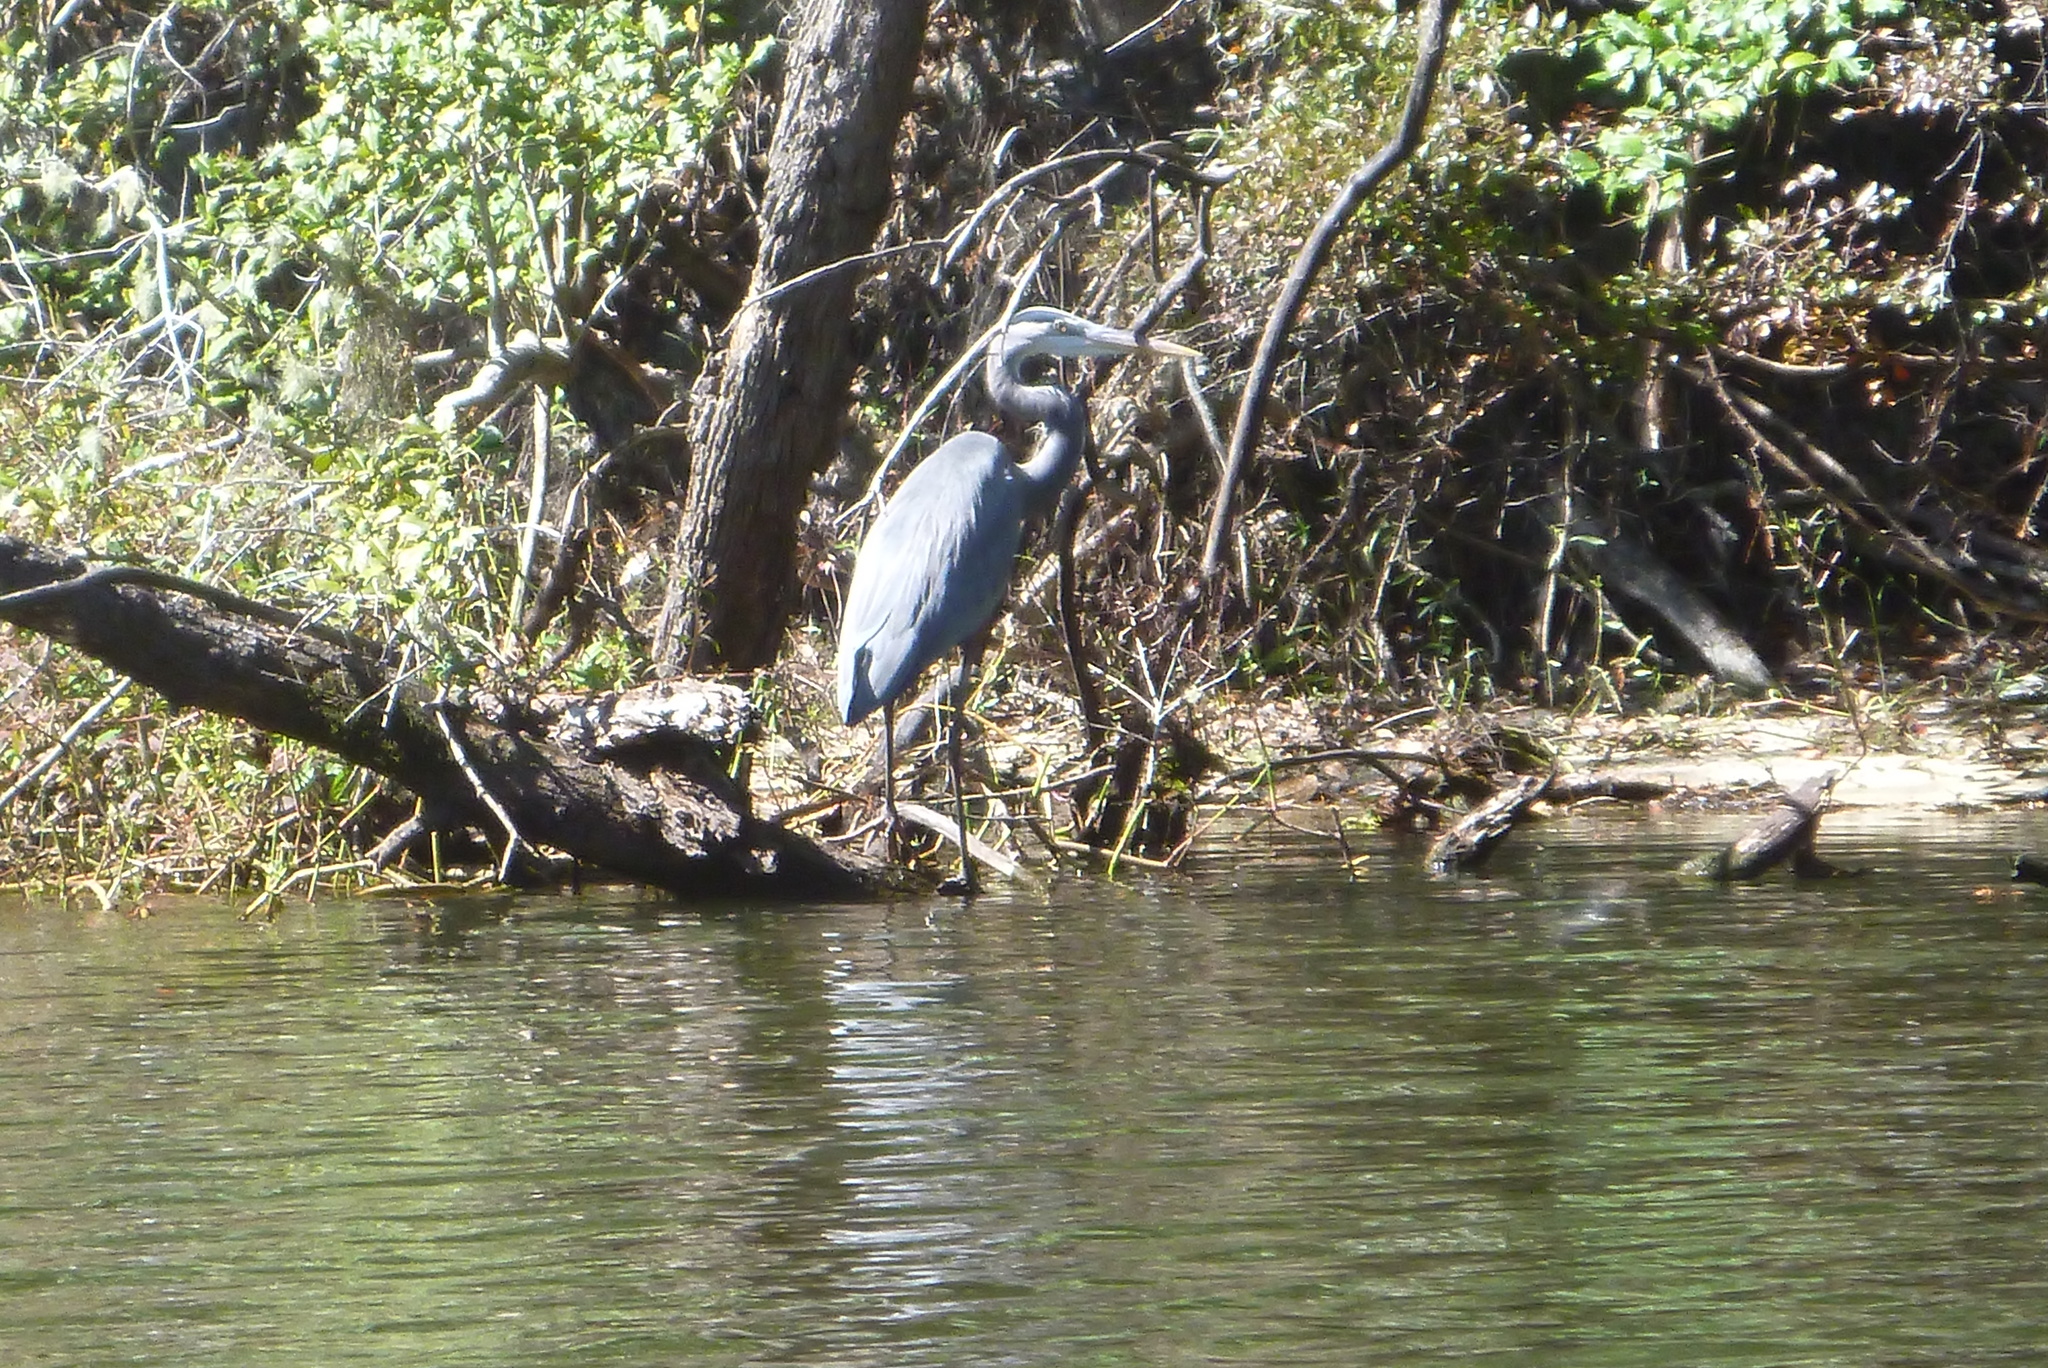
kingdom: Animalia
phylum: Chordata
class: Aves
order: Pelecaniformes
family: Ardeidae
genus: Ardea
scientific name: Ardea herodias
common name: Great blue heron
